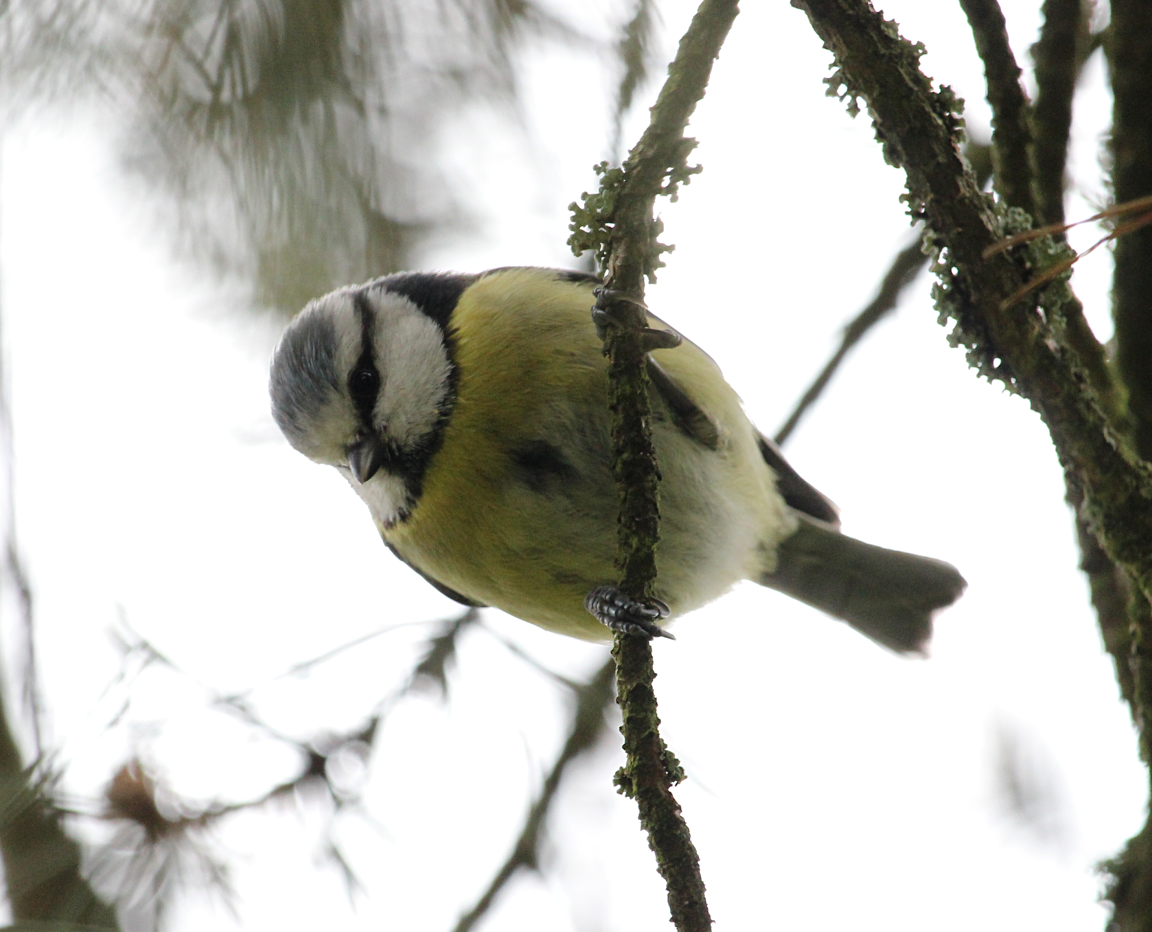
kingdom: Animalia
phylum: Chordata
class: Aves
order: Passeriformes
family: Paridae
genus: Cyanistes
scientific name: Cyanistes caeruleus
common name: Eurasian blue tit
